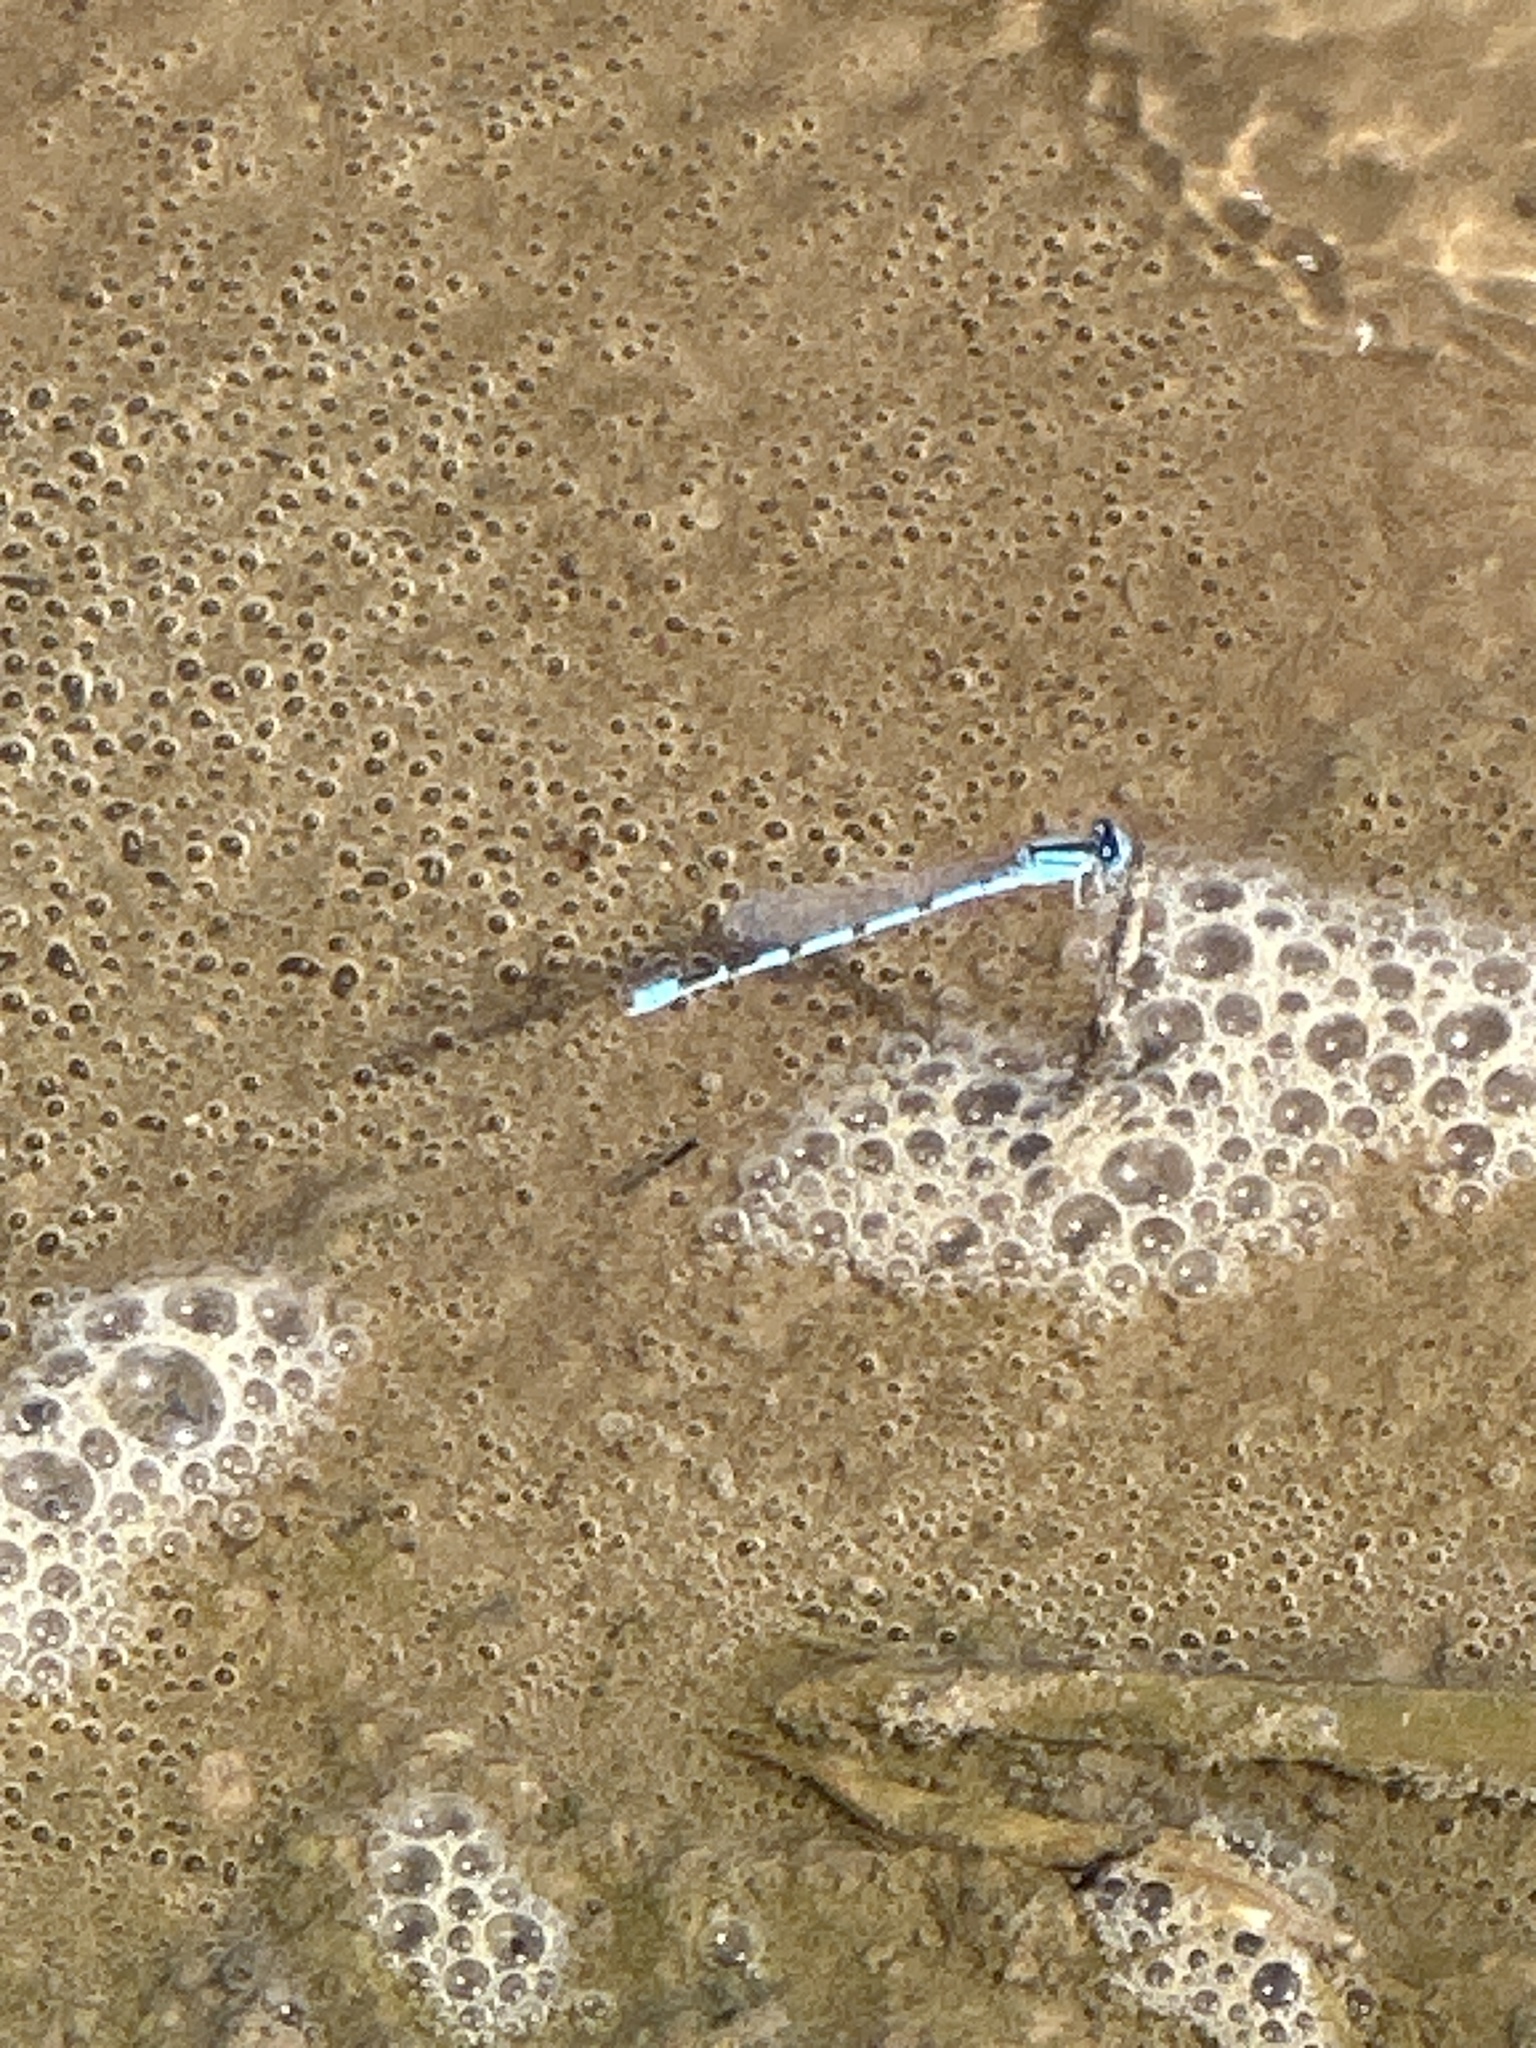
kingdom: Animalia
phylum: Arthropoda
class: Insecta
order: Odonata
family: Coenagrionidae
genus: Enallagma
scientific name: Enallagma civile
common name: Damselfly
